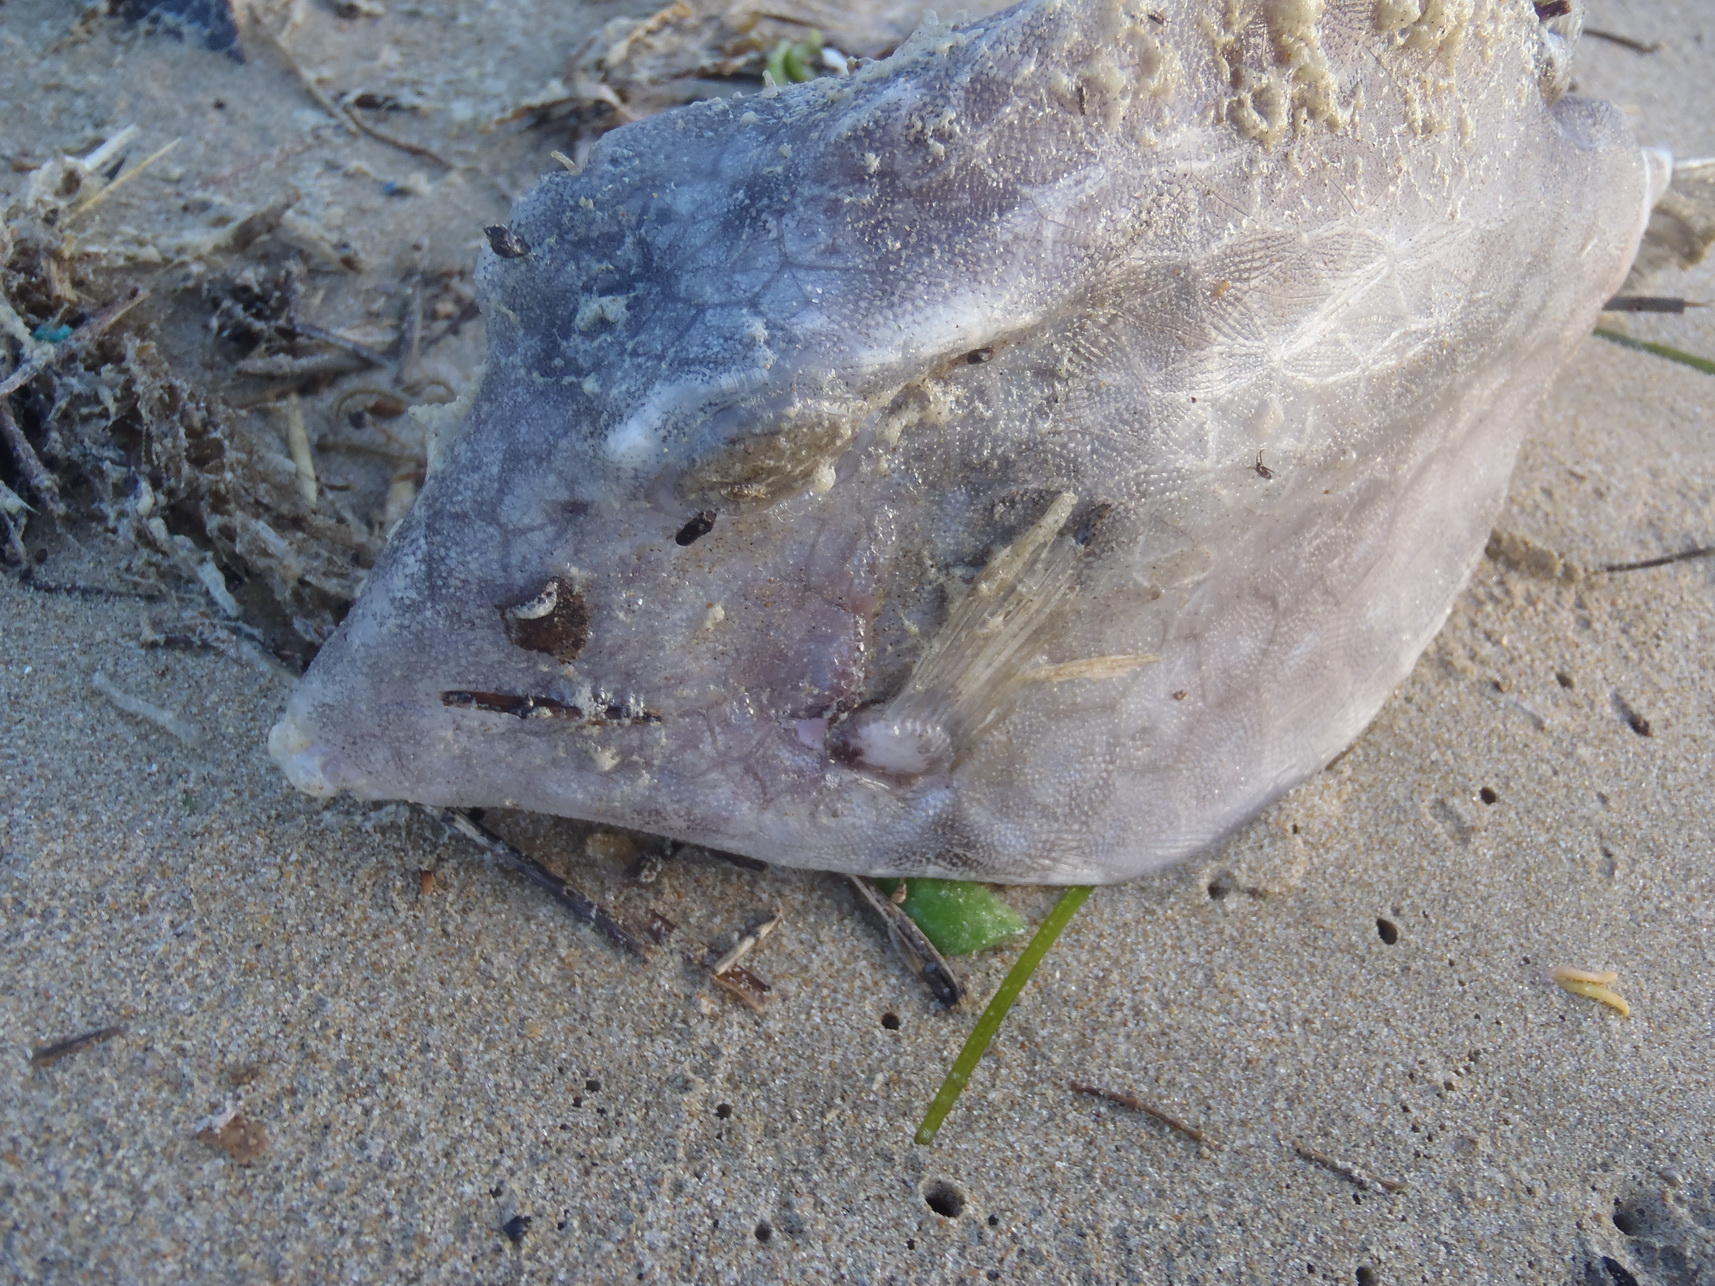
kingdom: Animalia
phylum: Chordata
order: Tetraodontiformes
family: Ostraciidae
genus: Lactoria
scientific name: Lactoria diaphana
